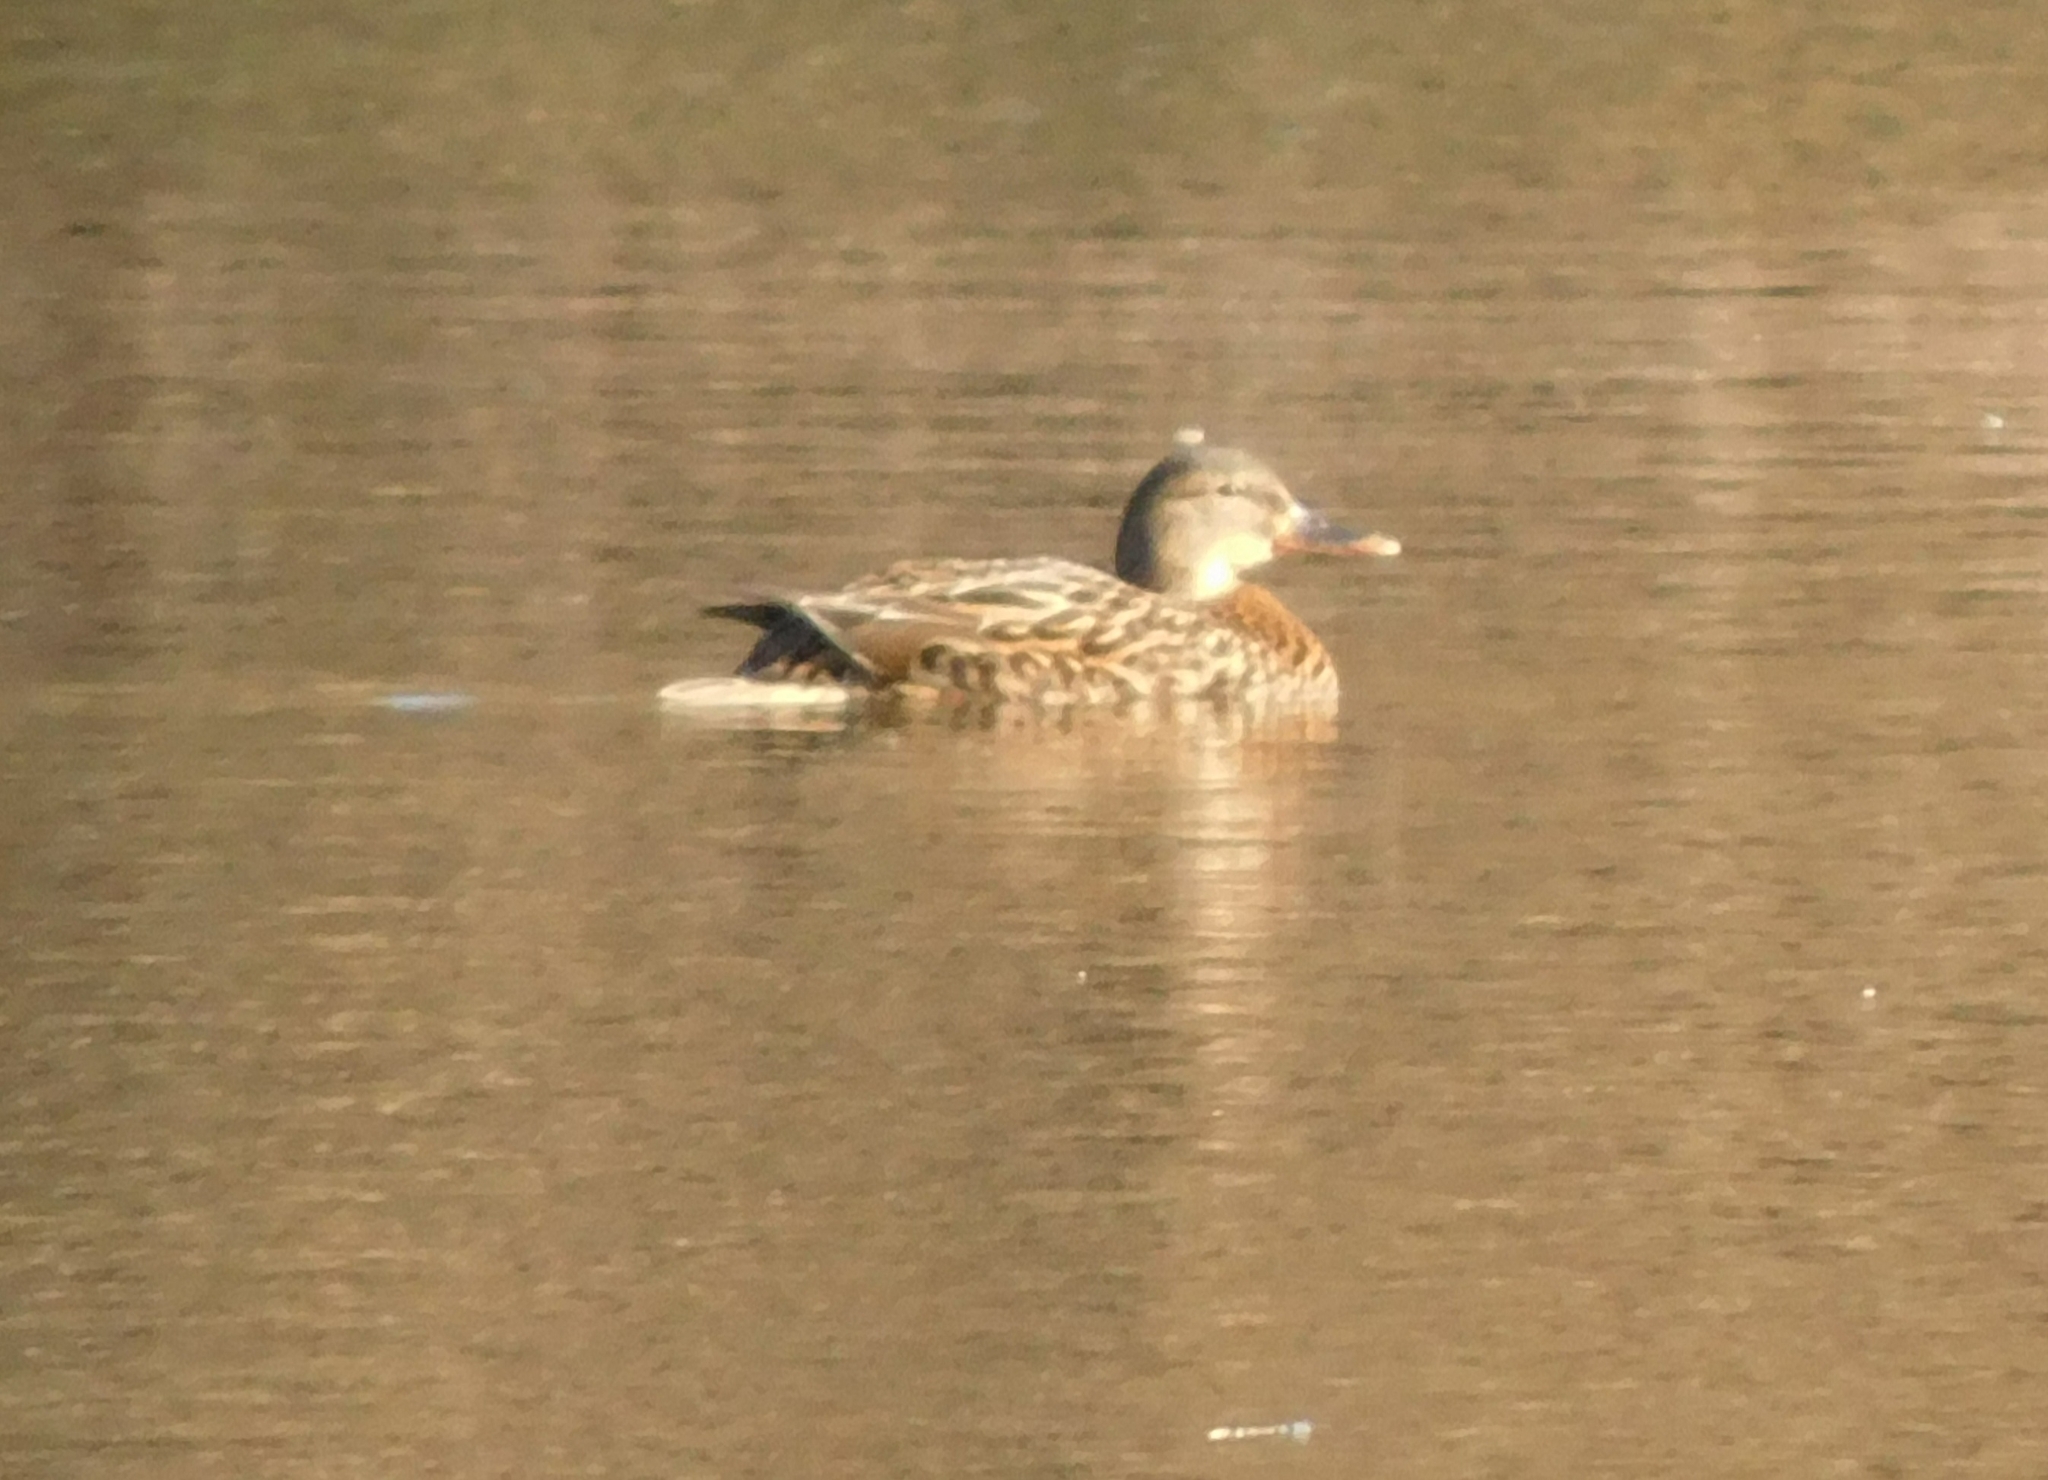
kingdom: Animalia
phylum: Chordata
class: Aves
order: Anseriformes
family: Anatidae
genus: Anas
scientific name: Anas platyrhynchos
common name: Mallard
